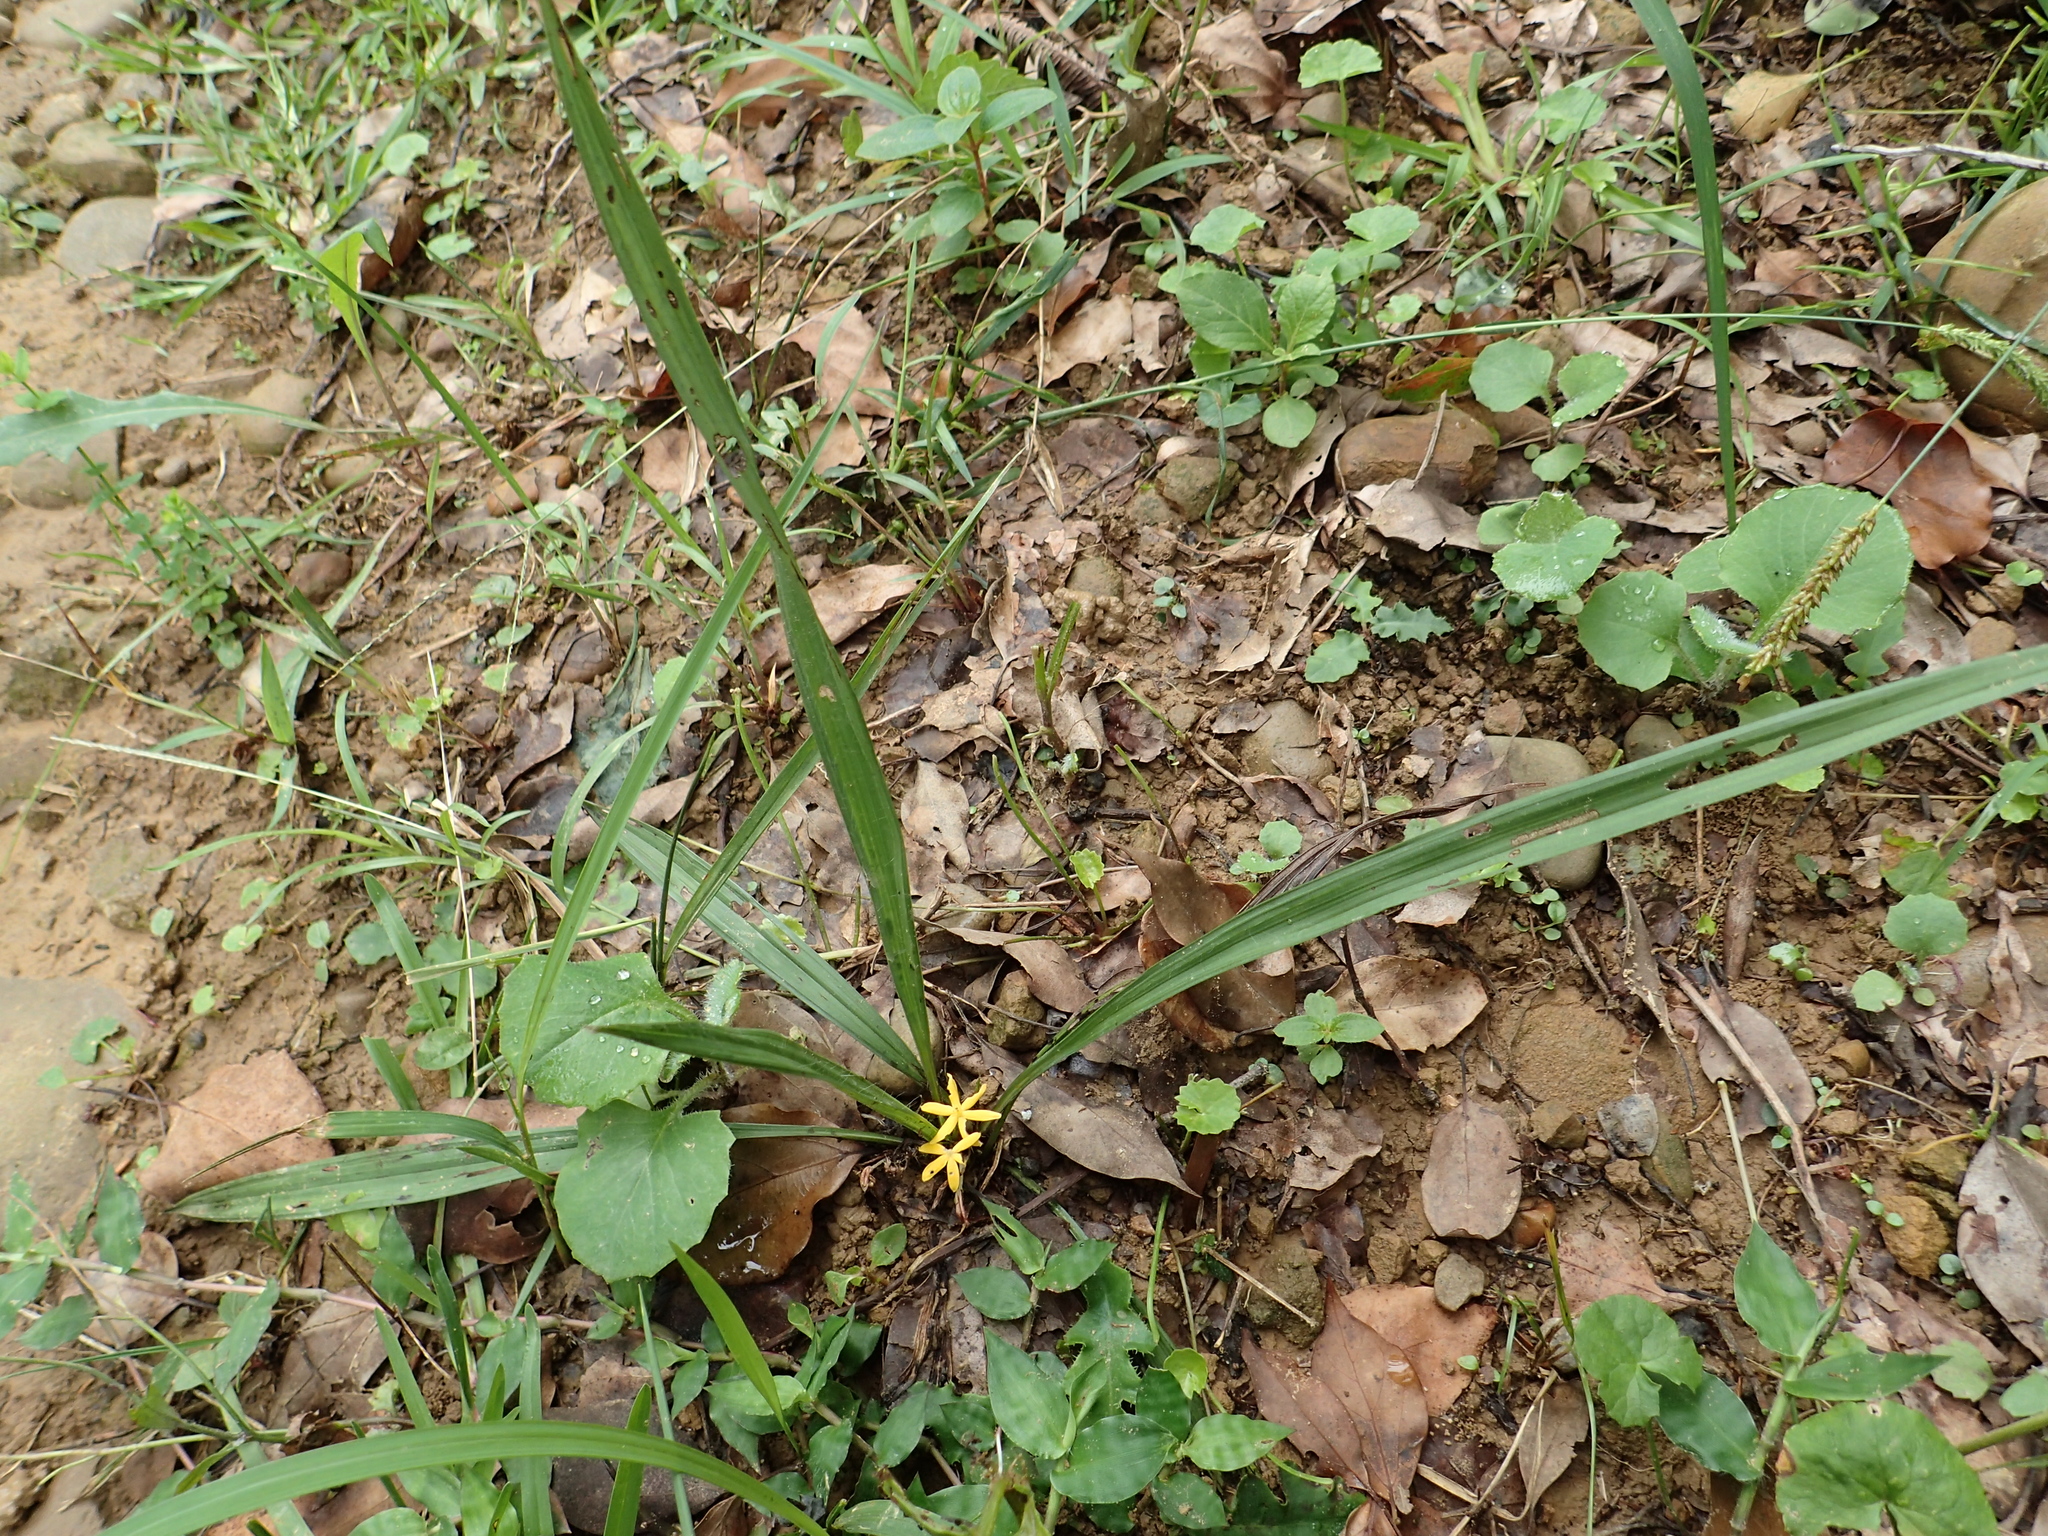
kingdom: Plantae
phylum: Tracheophyta
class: Liliopsida
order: Asparagales
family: Hypoxidaceae
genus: Curculigo
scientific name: Curculigo orchioides
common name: Golden eye-grass
